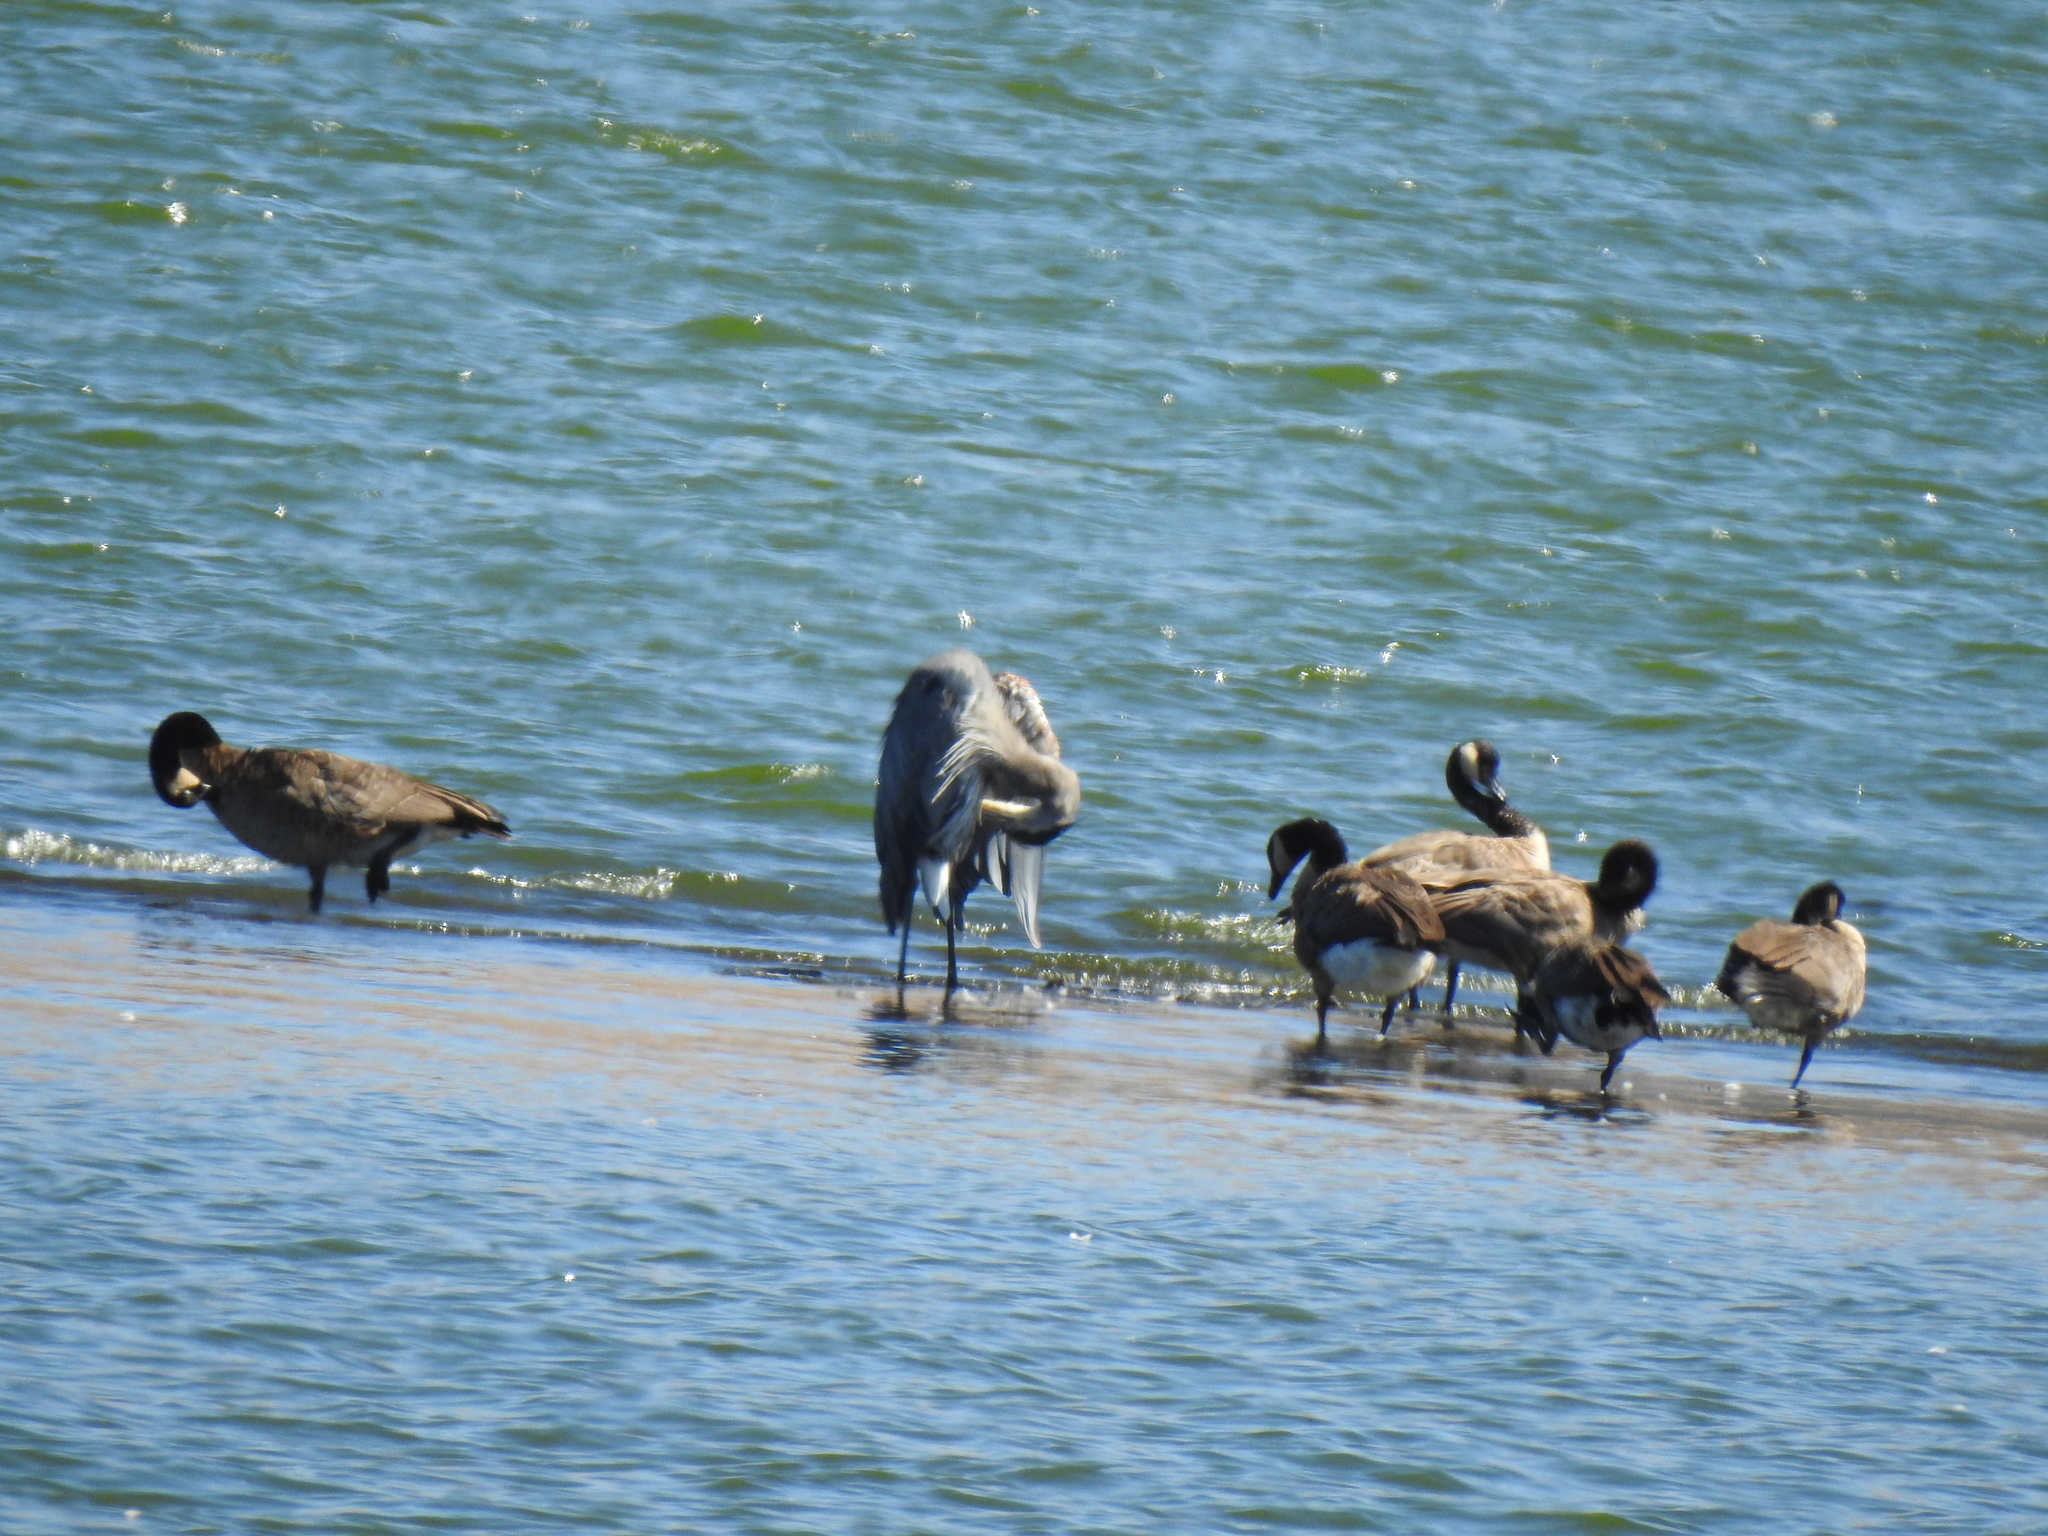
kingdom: Animalia
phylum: Chordata
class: Aves
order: Anseriformes
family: Anatidae
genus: Branta
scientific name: Branta canadensis
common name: Canada goose
